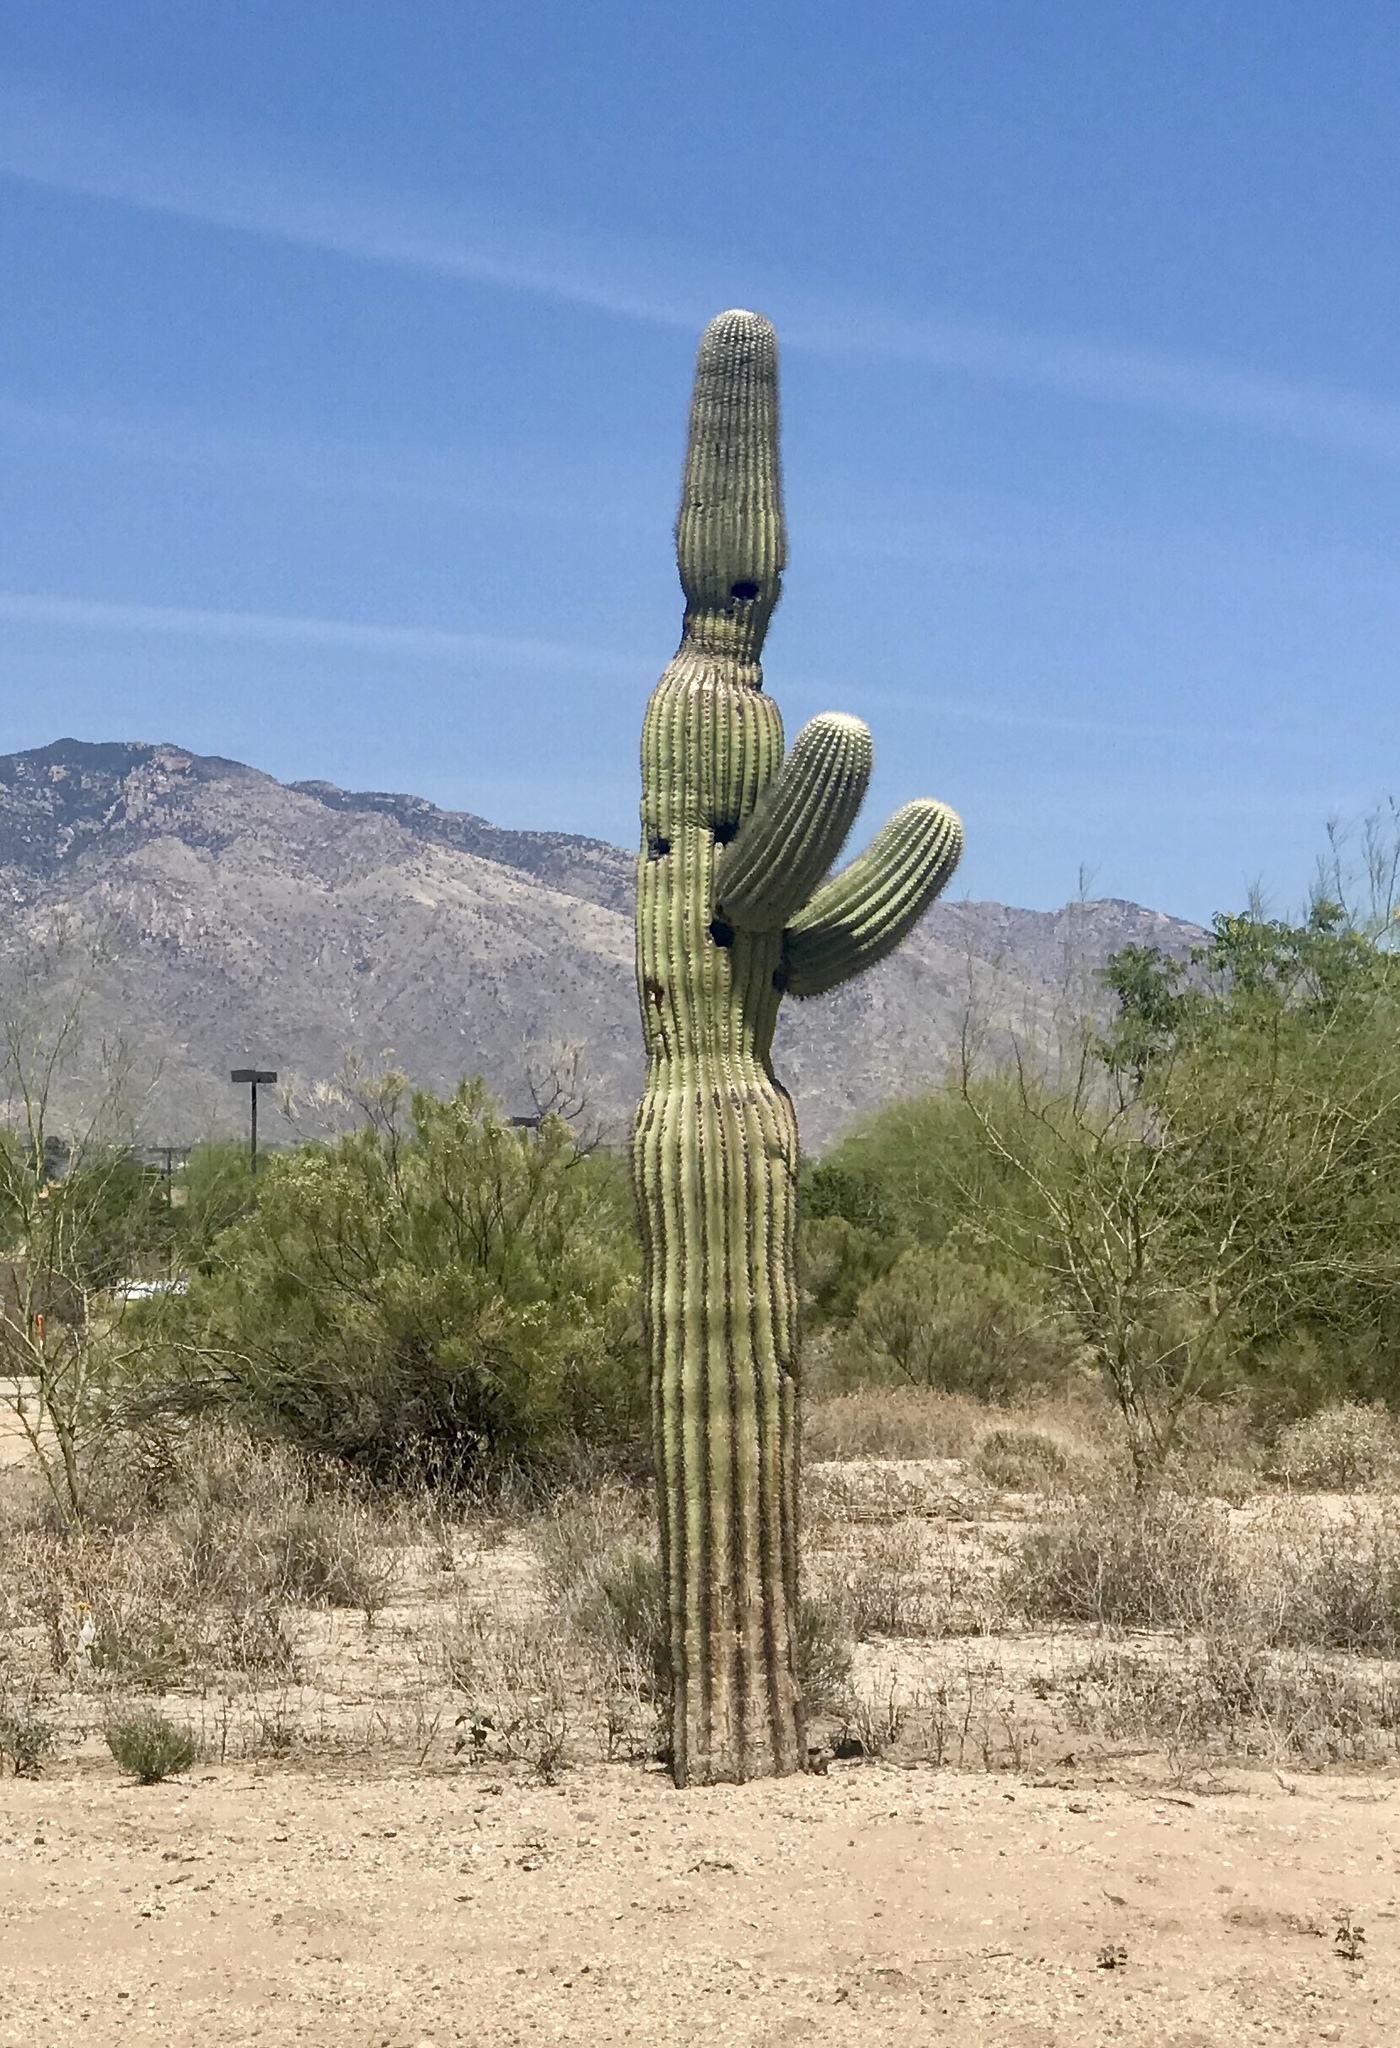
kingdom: Plantae
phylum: Tracheophyta
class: Magnoliopsida
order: Caryophyllales
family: Cactaceae
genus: Carnegiea
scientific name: Carnegiea gigantea
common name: Saguaro
